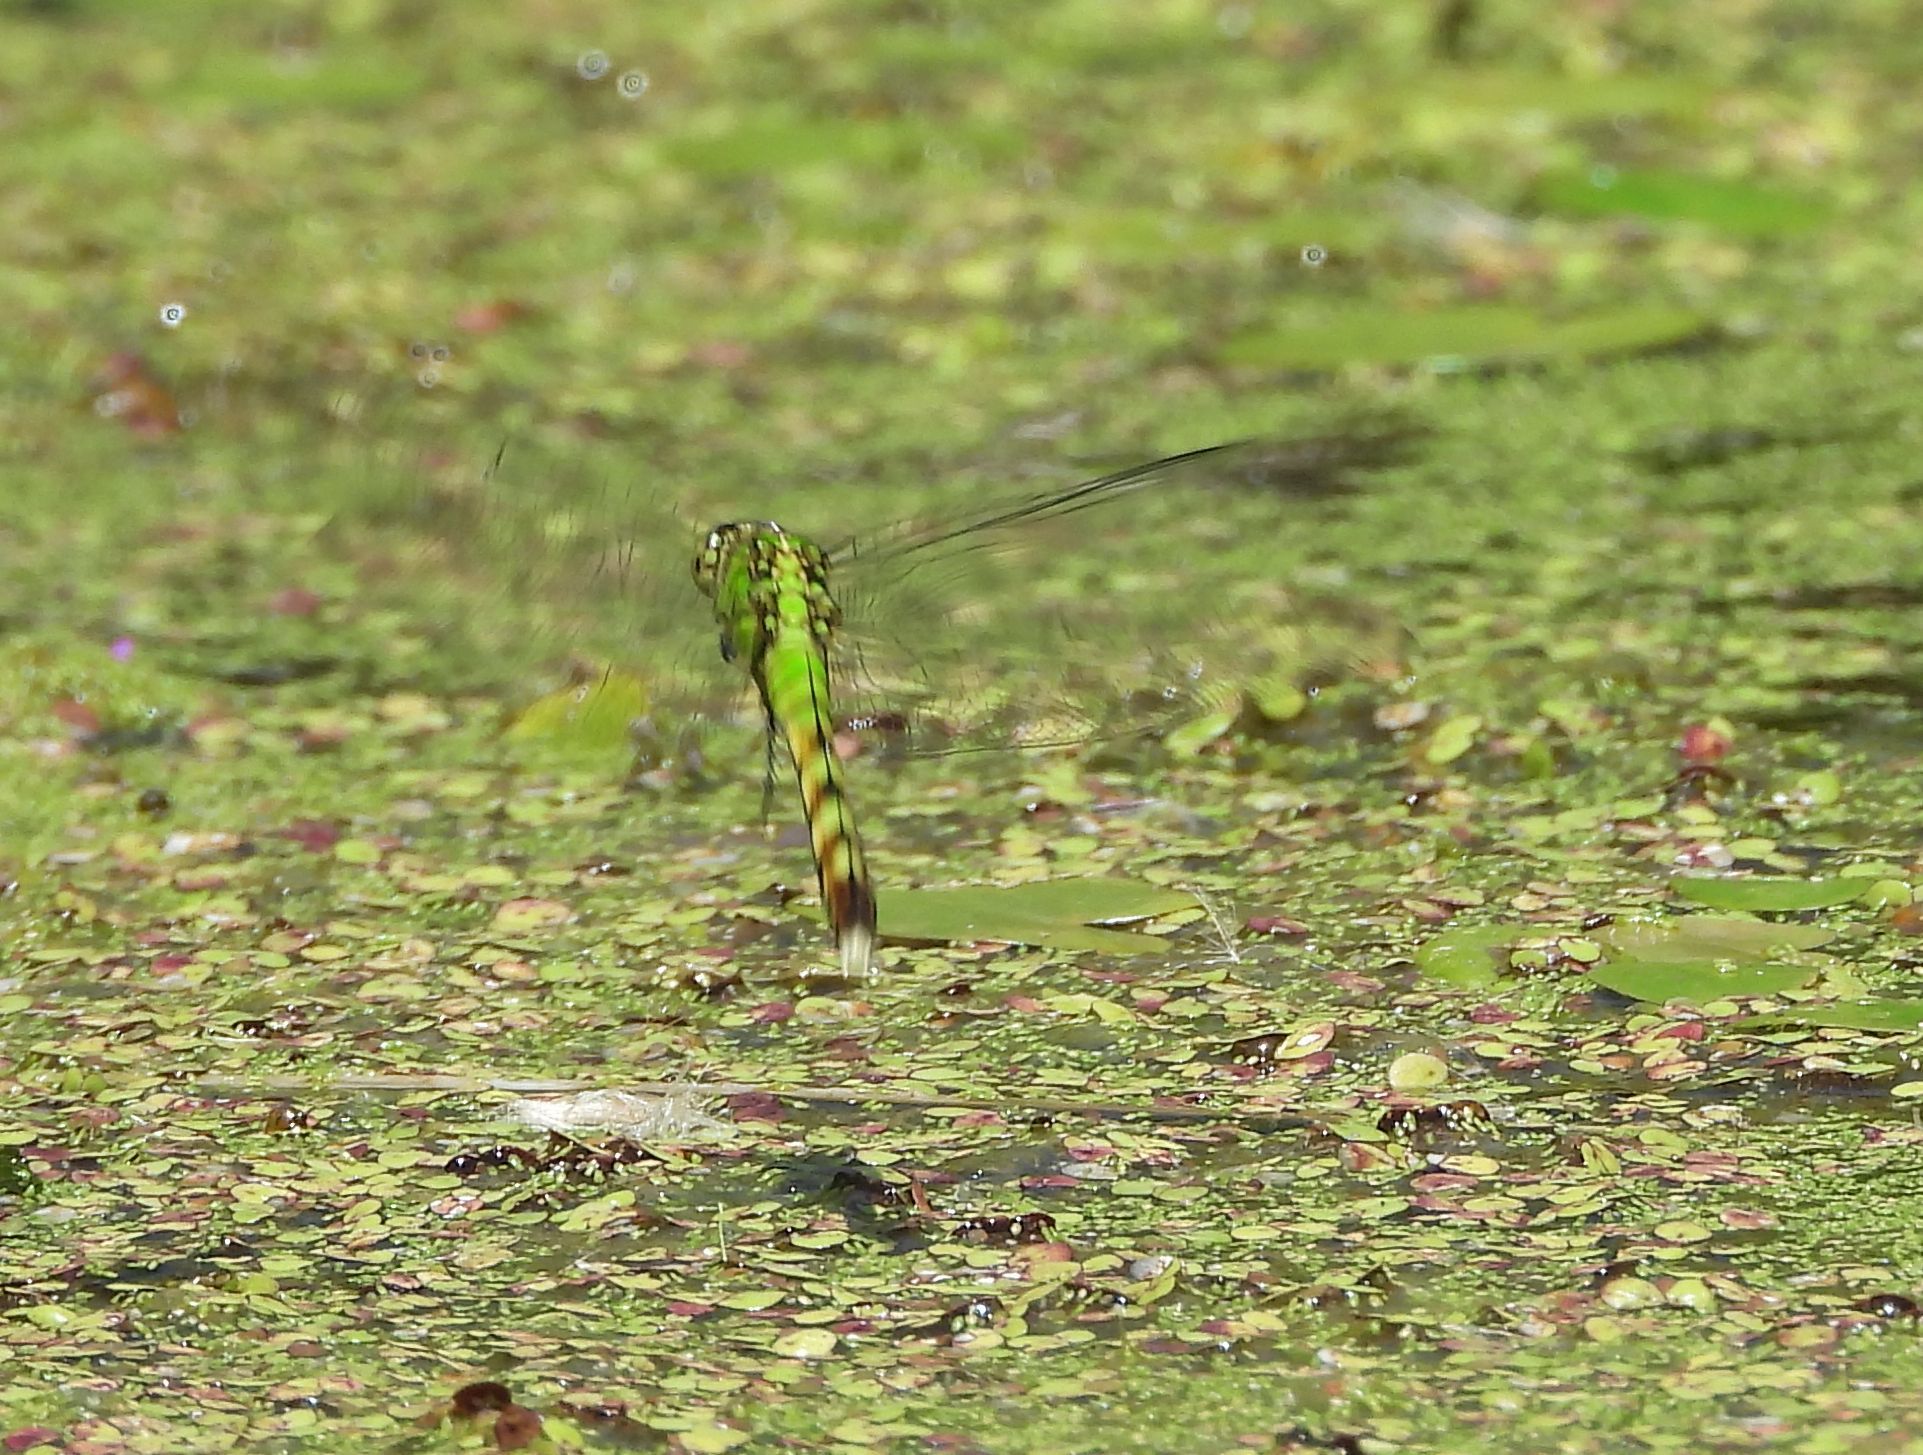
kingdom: Animalia
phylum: Arthropoda
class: Insecta
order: Odonata
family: Libellulidae
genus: Erythemis
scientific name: Erythemis simplicicollis
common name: Eastern pondhawk
